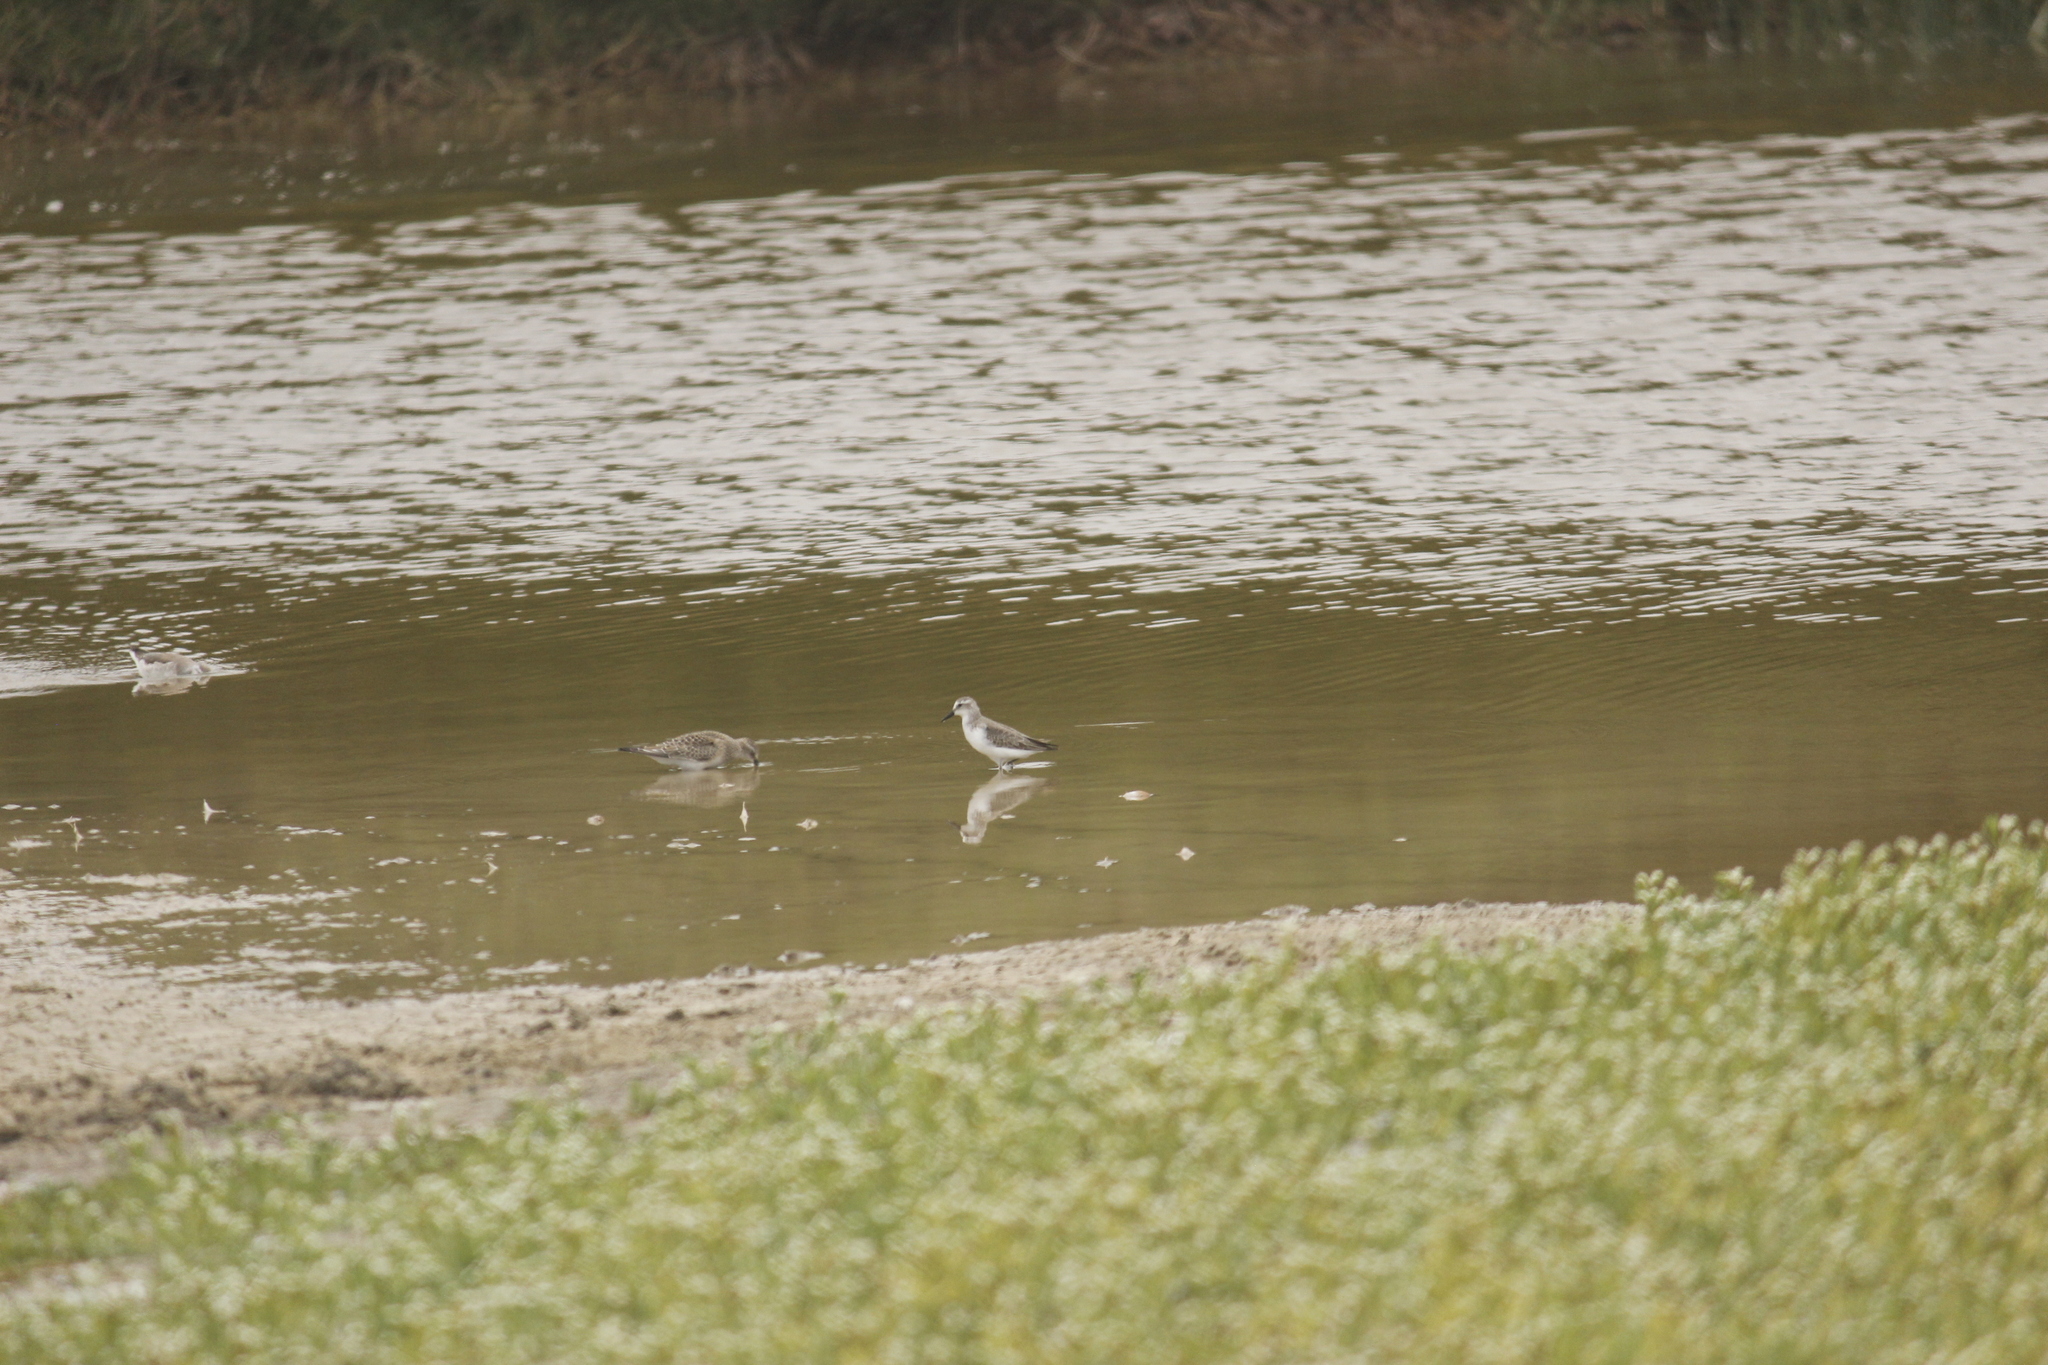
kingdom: Animalia
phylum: Chordata
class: Aves
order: Charadriiformes
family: Scolopacidae
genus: Calidris
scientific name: Calidris bairdii
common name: Baird's sandpiper
